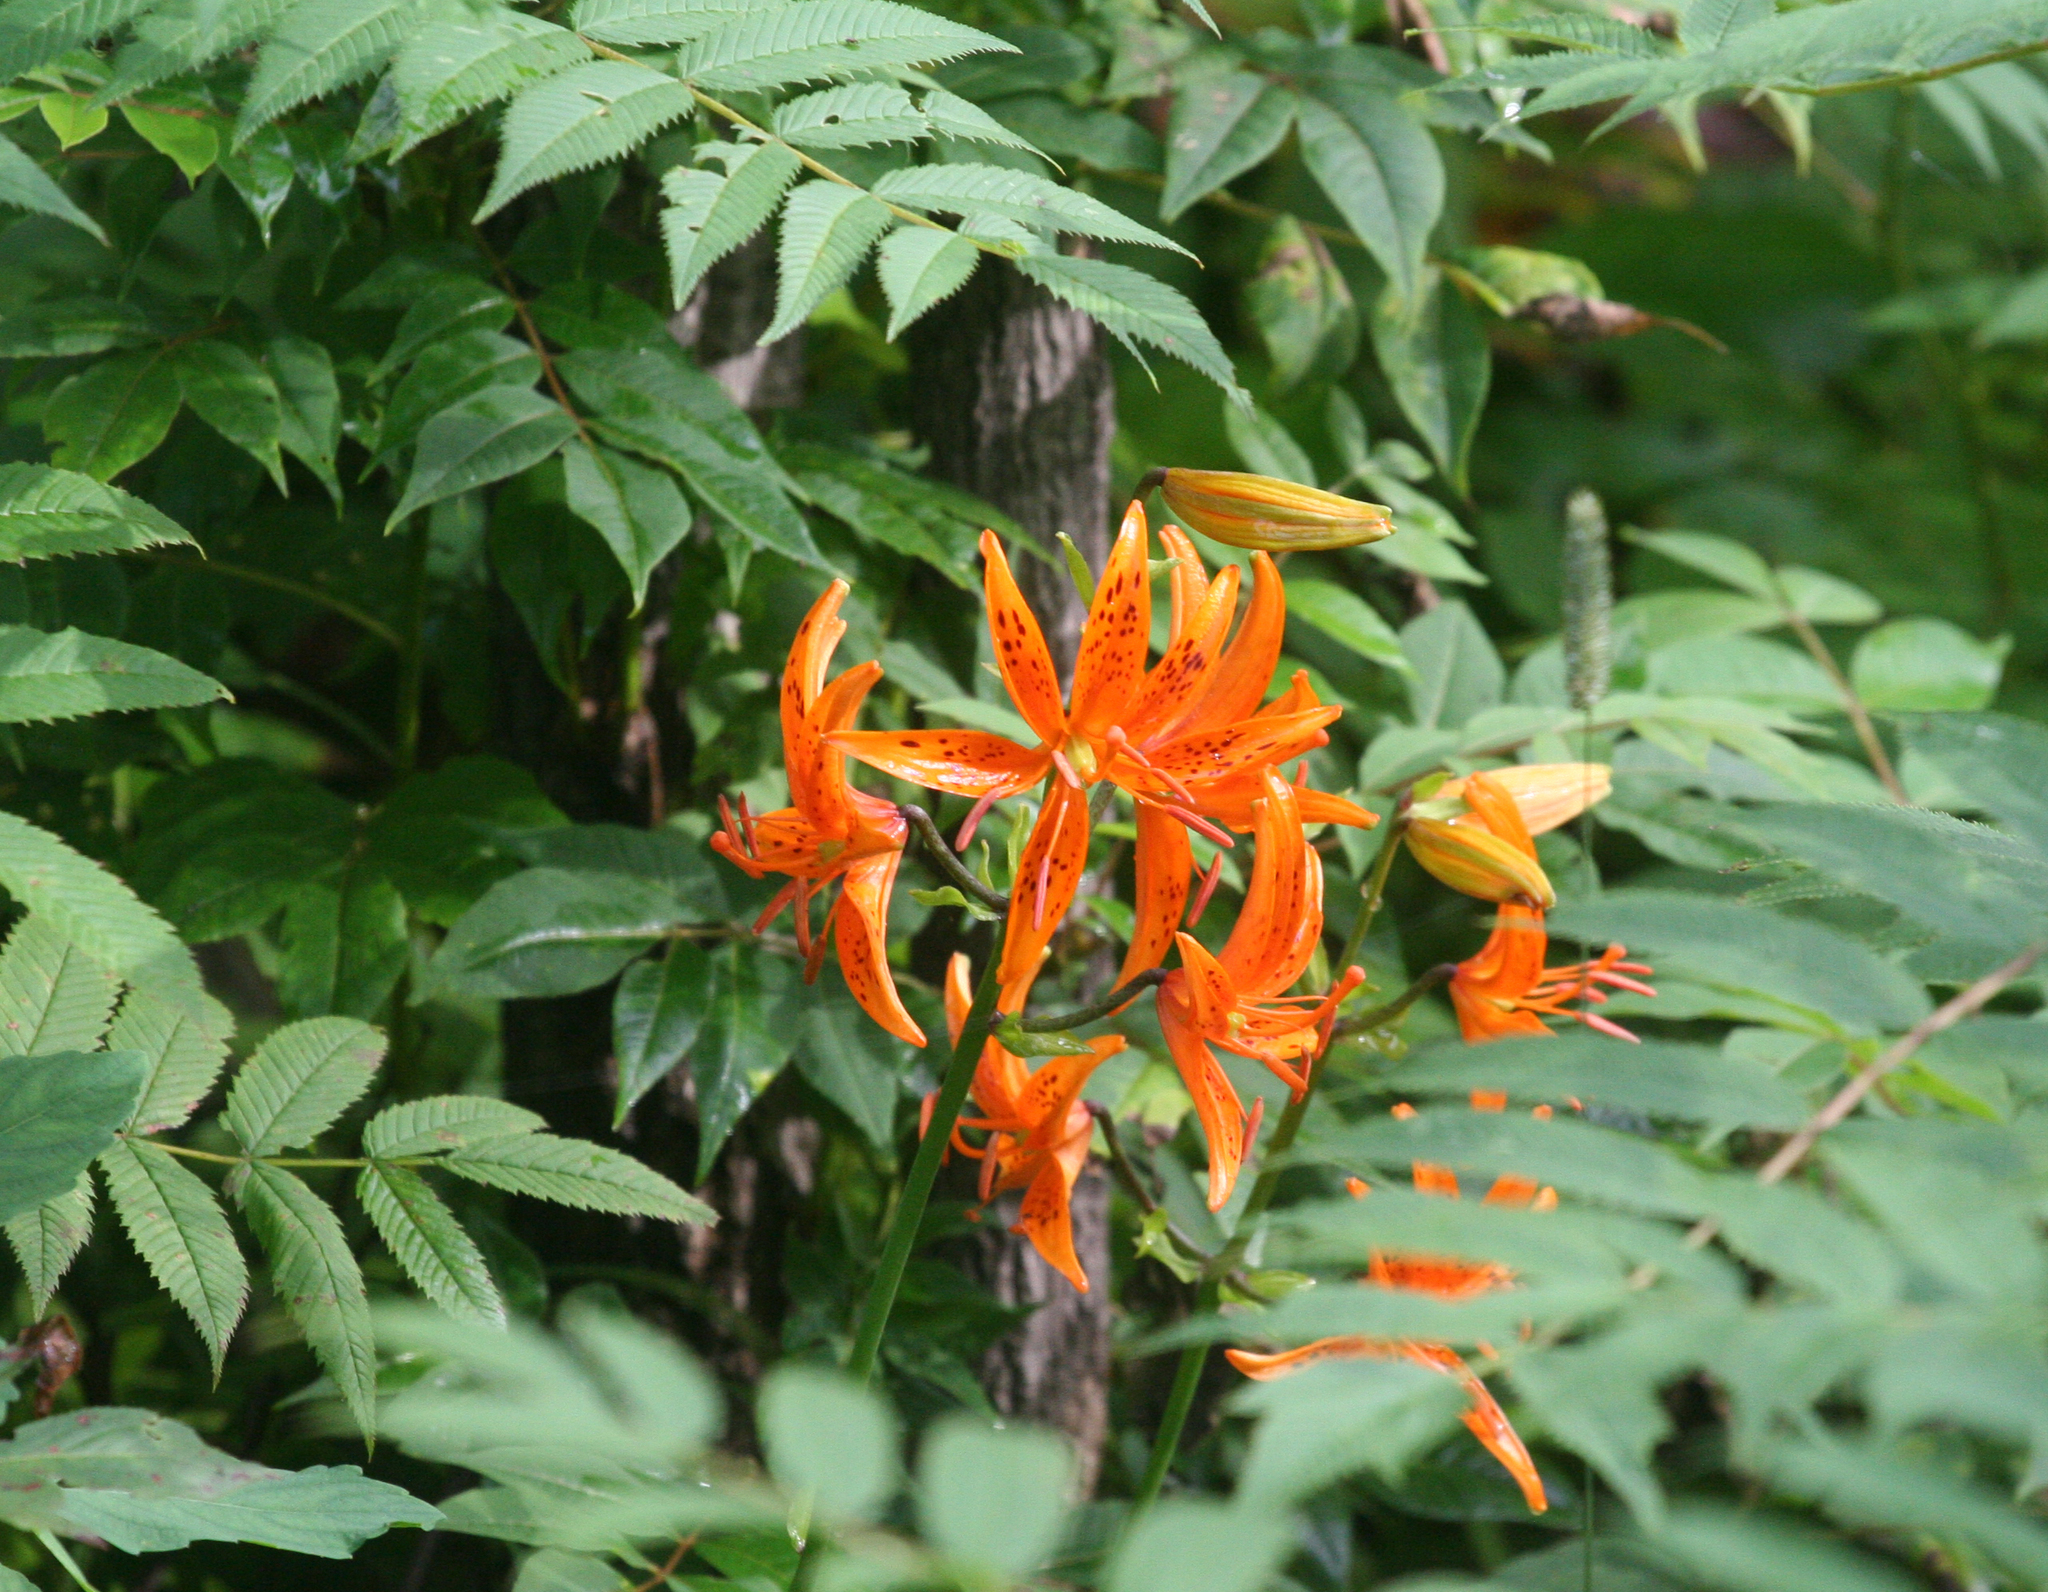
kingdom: Plantae
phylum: Tracheophyta
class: Liliopsida
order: Liliales
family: Liliaceae
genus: Lilium
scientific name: Lilium distichum
